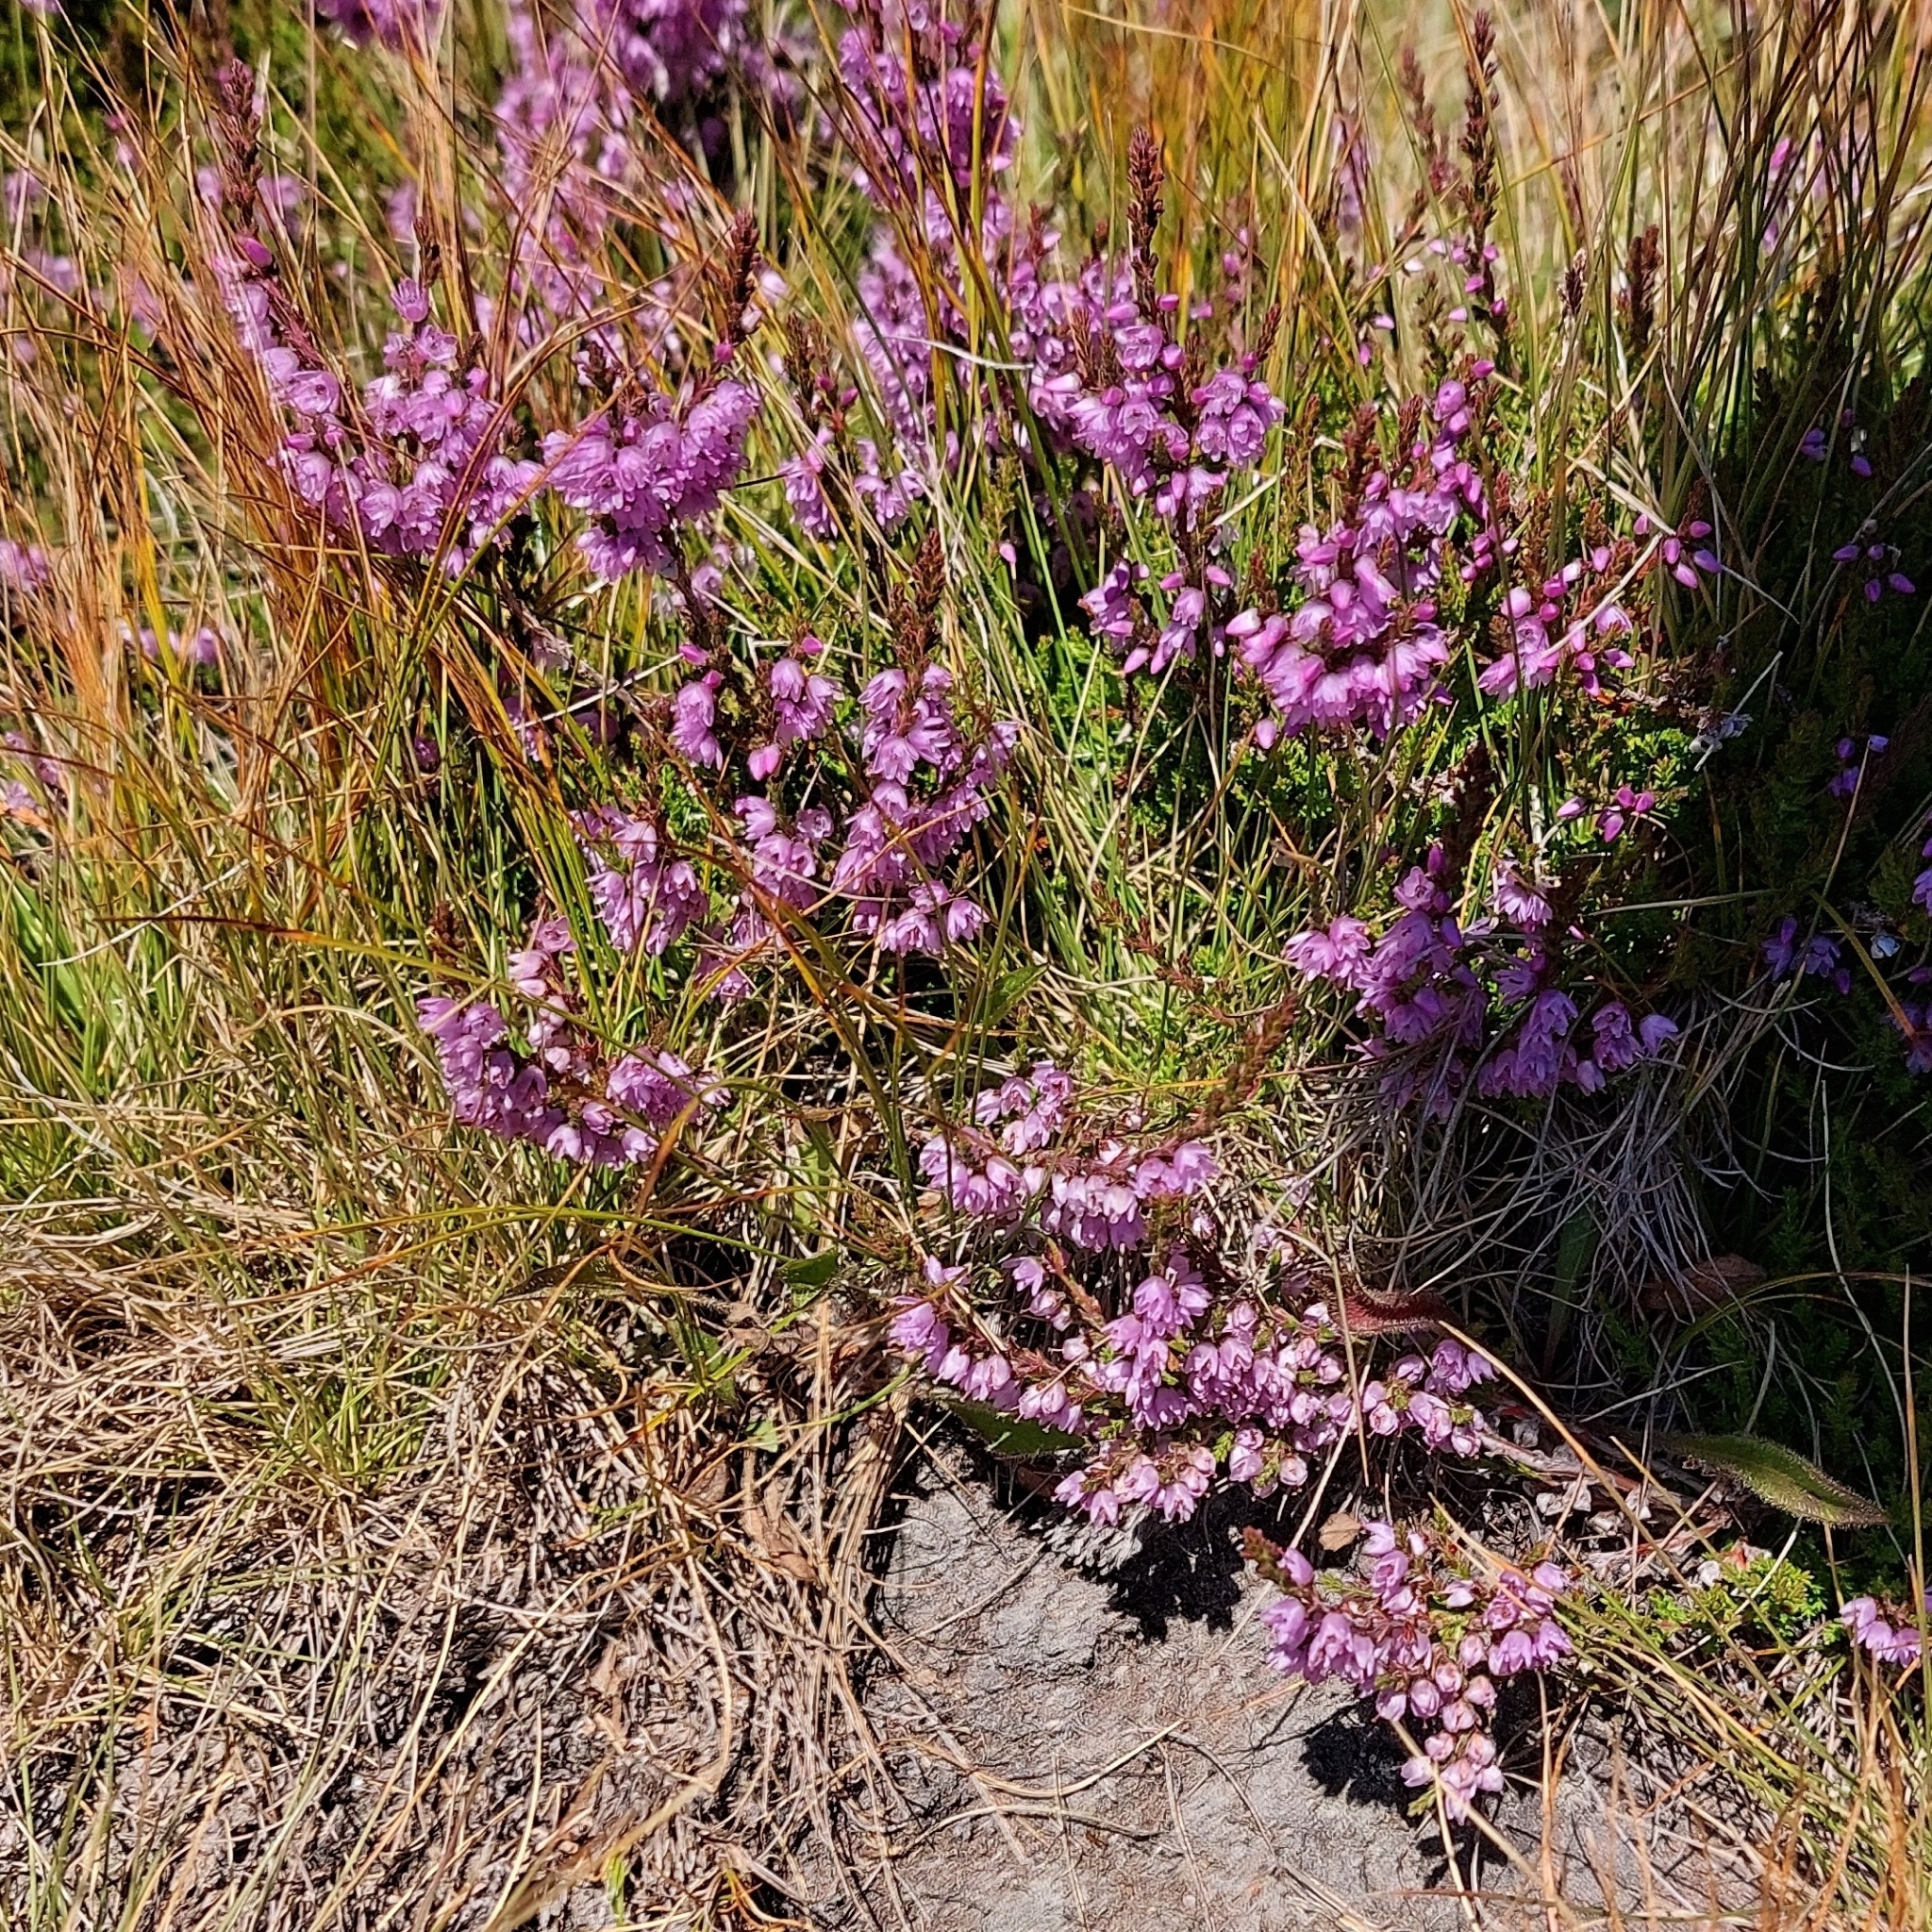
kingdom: Plantae
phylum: Tracheophyta
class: Magnoliopsida
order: Ericales
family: Ericaceae
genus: Calluna
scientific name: Calluna vulgaris
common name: Heather
